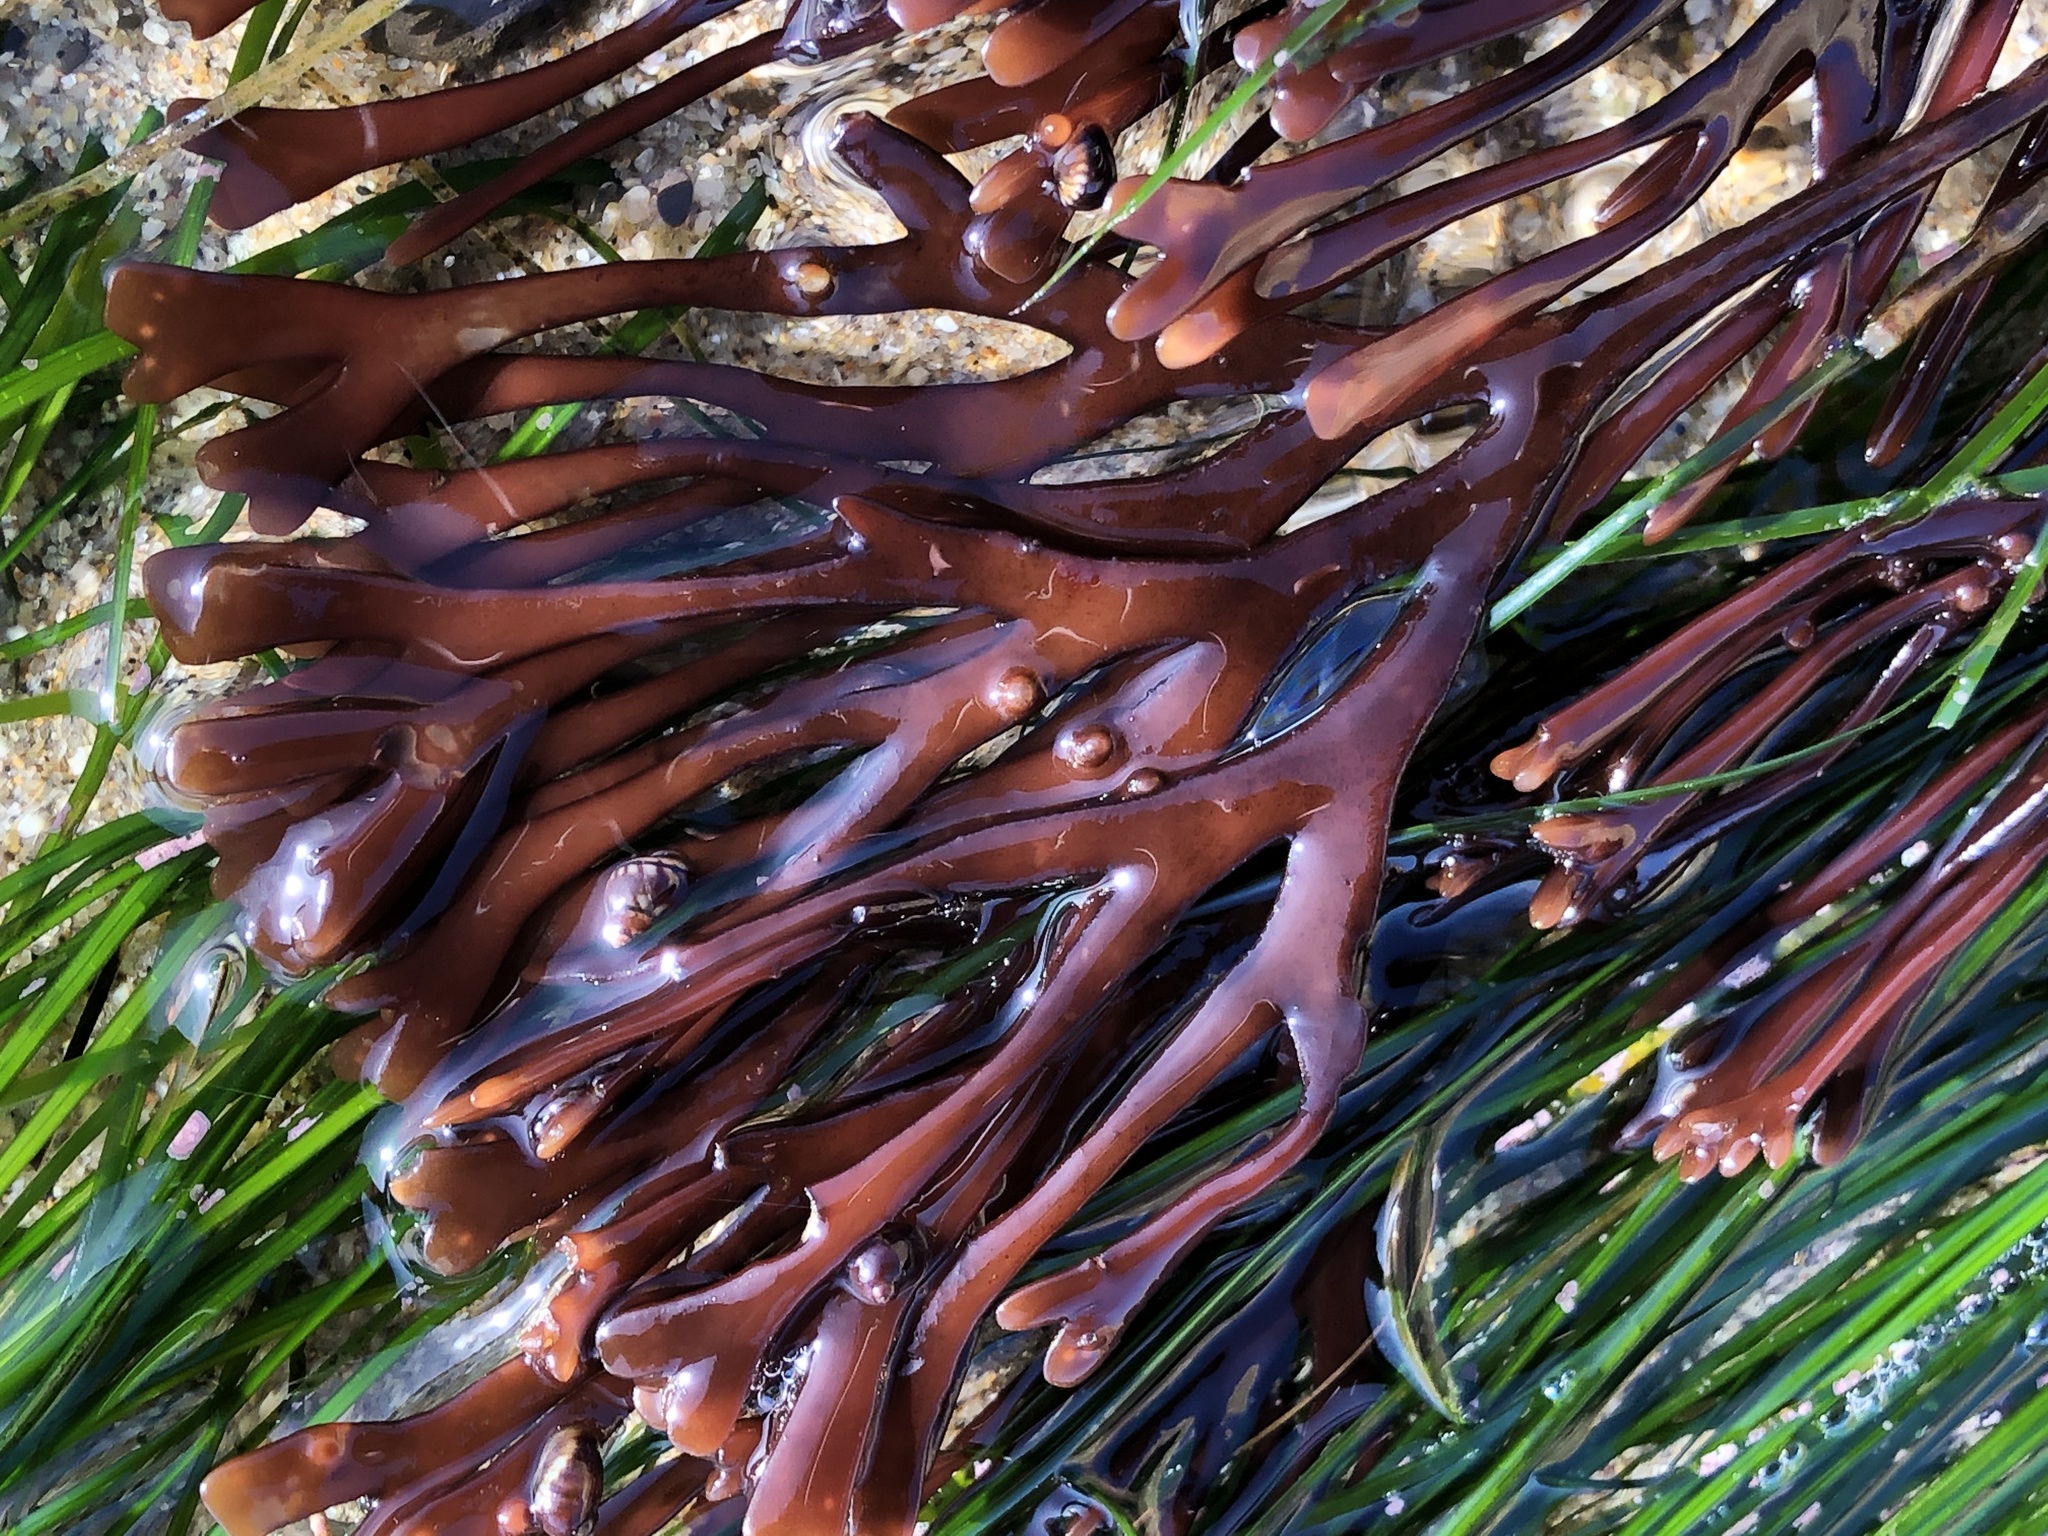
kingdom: Plantae
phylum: Rhodophyta
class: Florideophyceae
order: Gigartinales
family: Phyllophoraceae
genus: Ahnfeltiopsis
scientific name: Ahnfeltiopsis linearis
